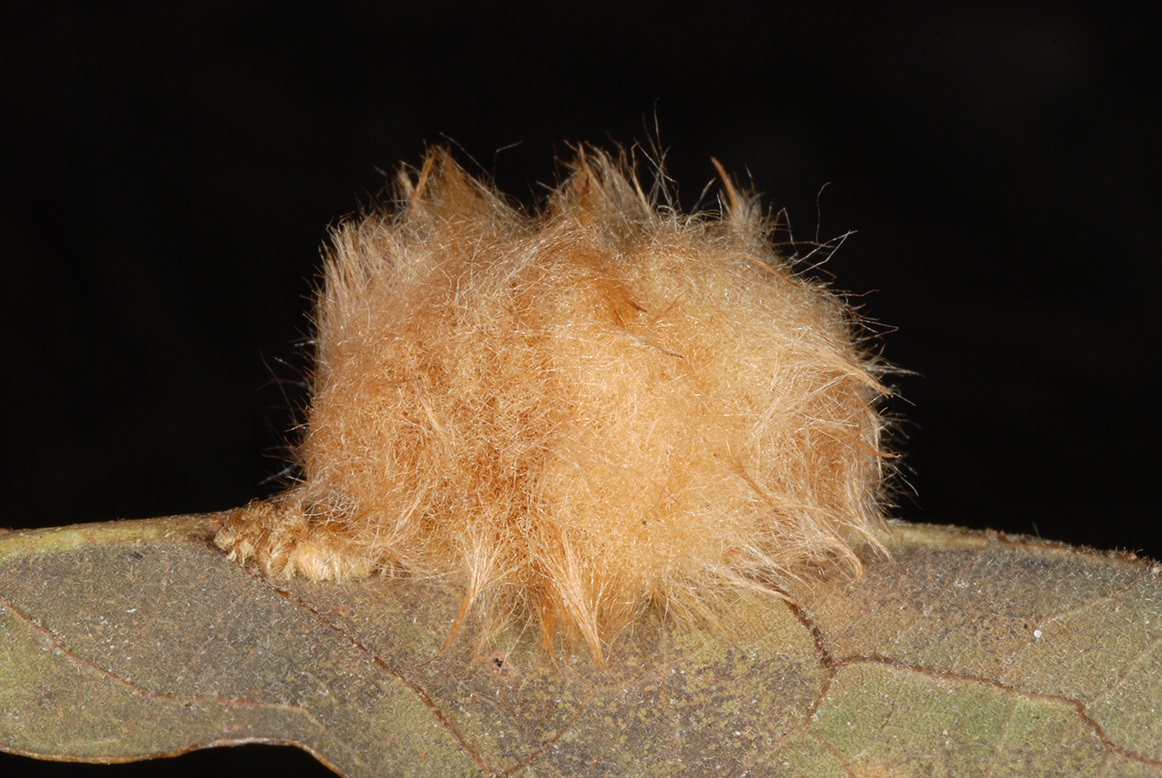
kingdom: Animalia
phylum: Arthropoda
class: Insecta
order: Hymenoptera
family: Cynipidae
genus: Andricus
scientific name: Andricus Druon pattoni
